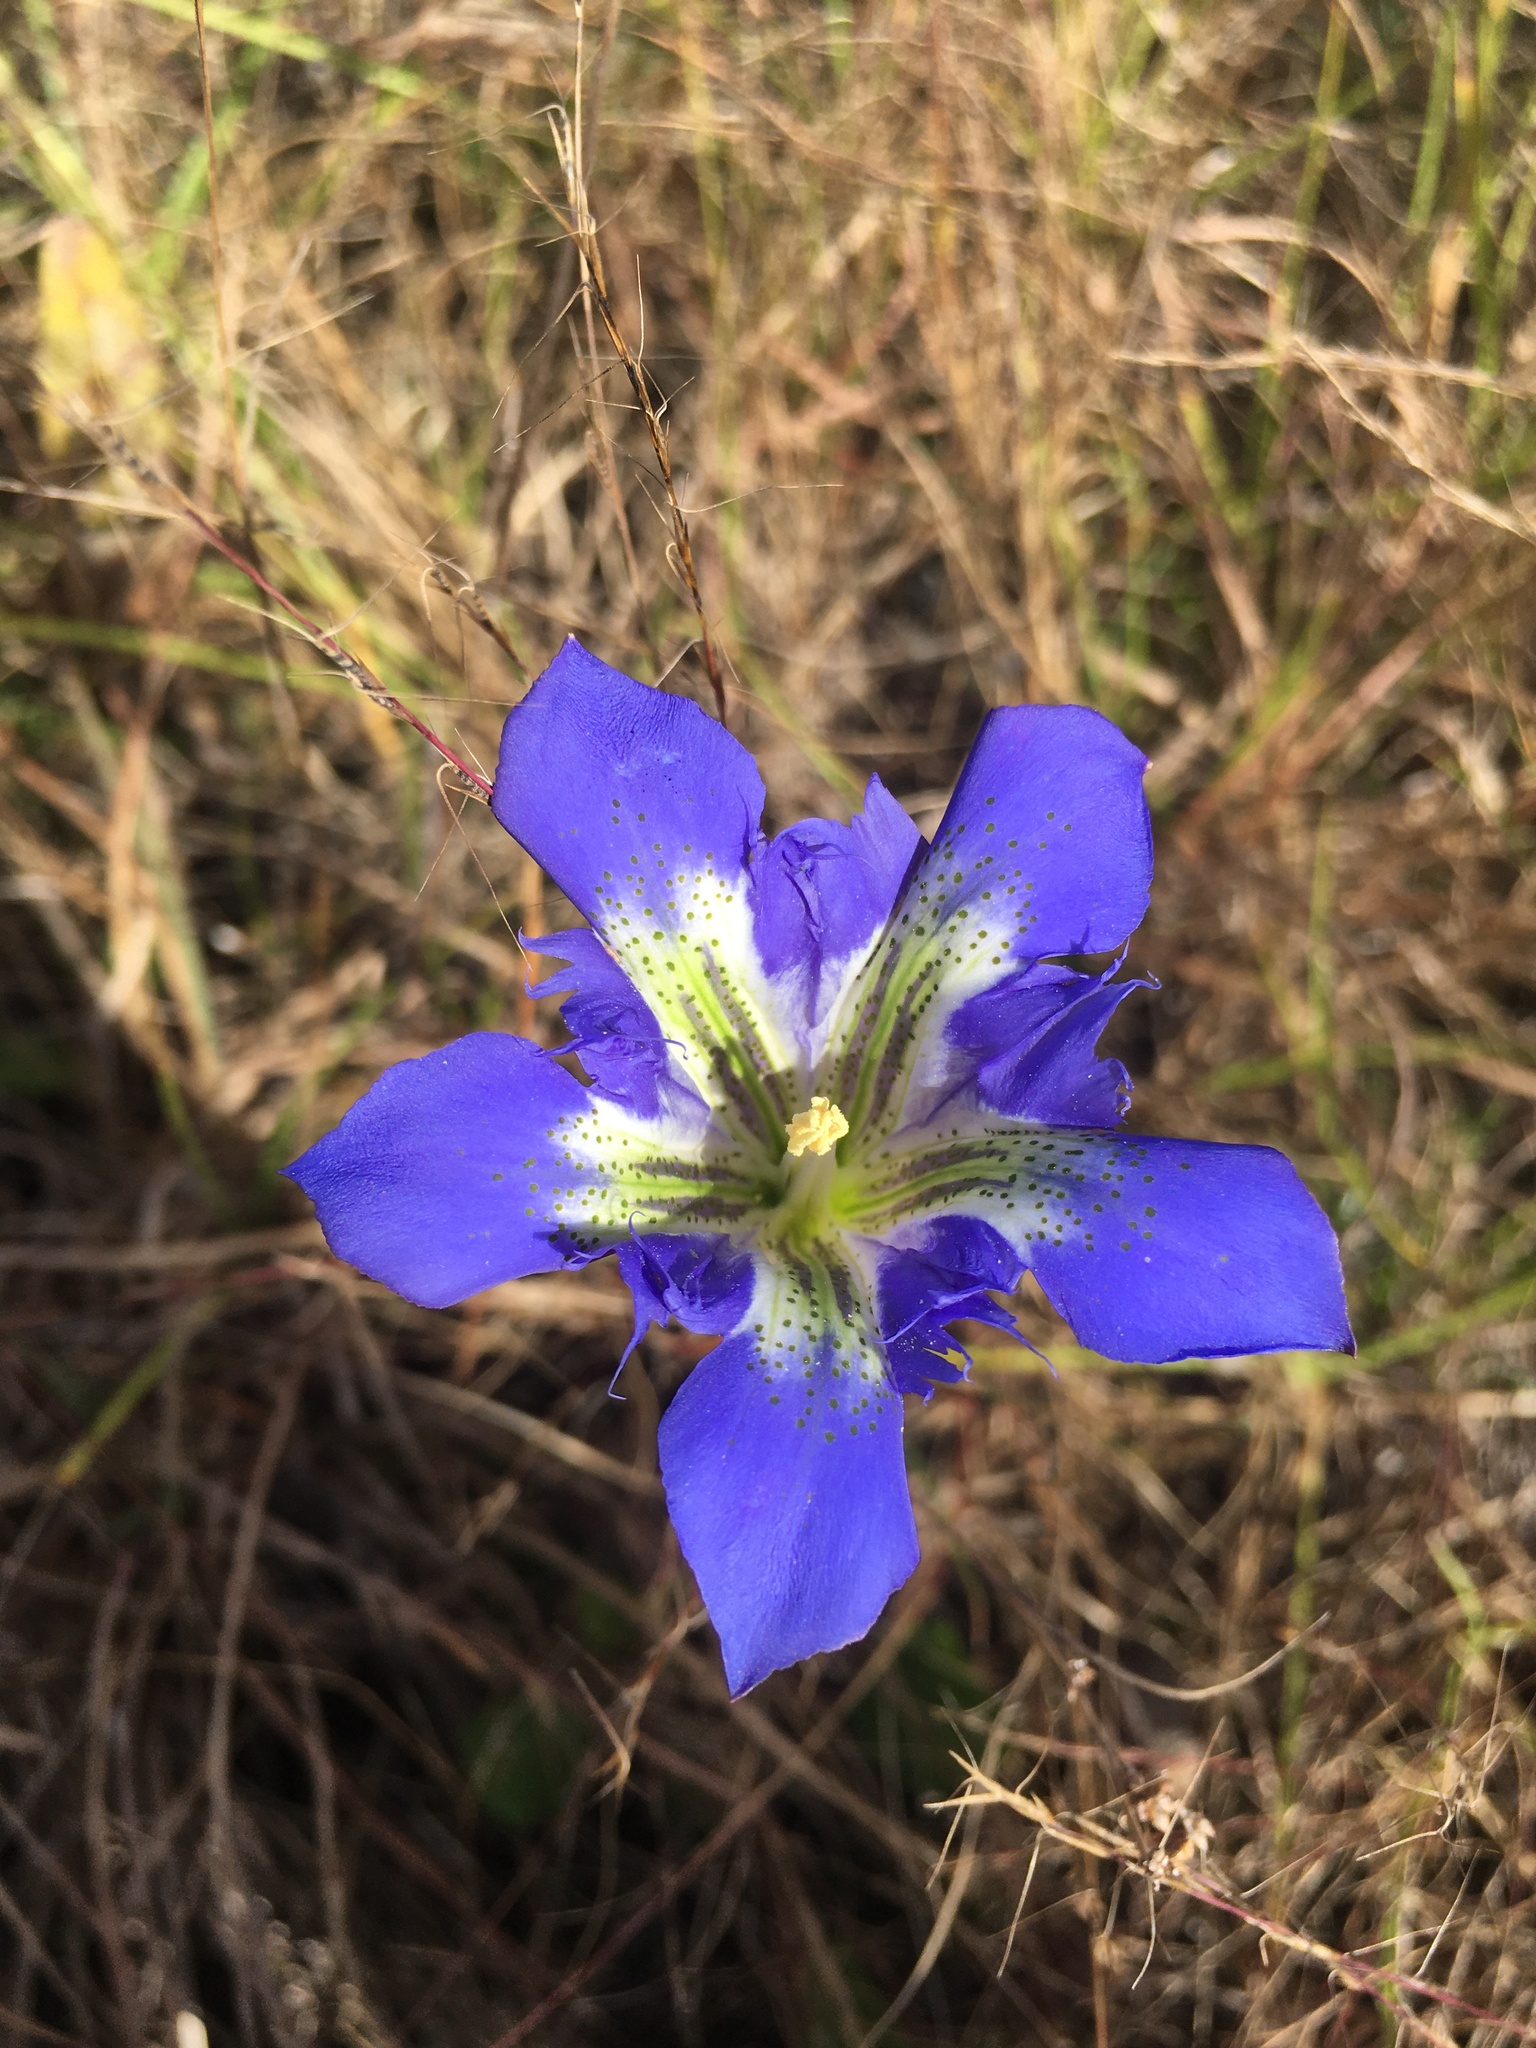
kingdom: Plantae
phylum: Tracheophyta
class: Magnoliopsida
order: Gentianales
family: Gentianaceae
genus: Gentiana
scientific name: Gentiana autumnalis
